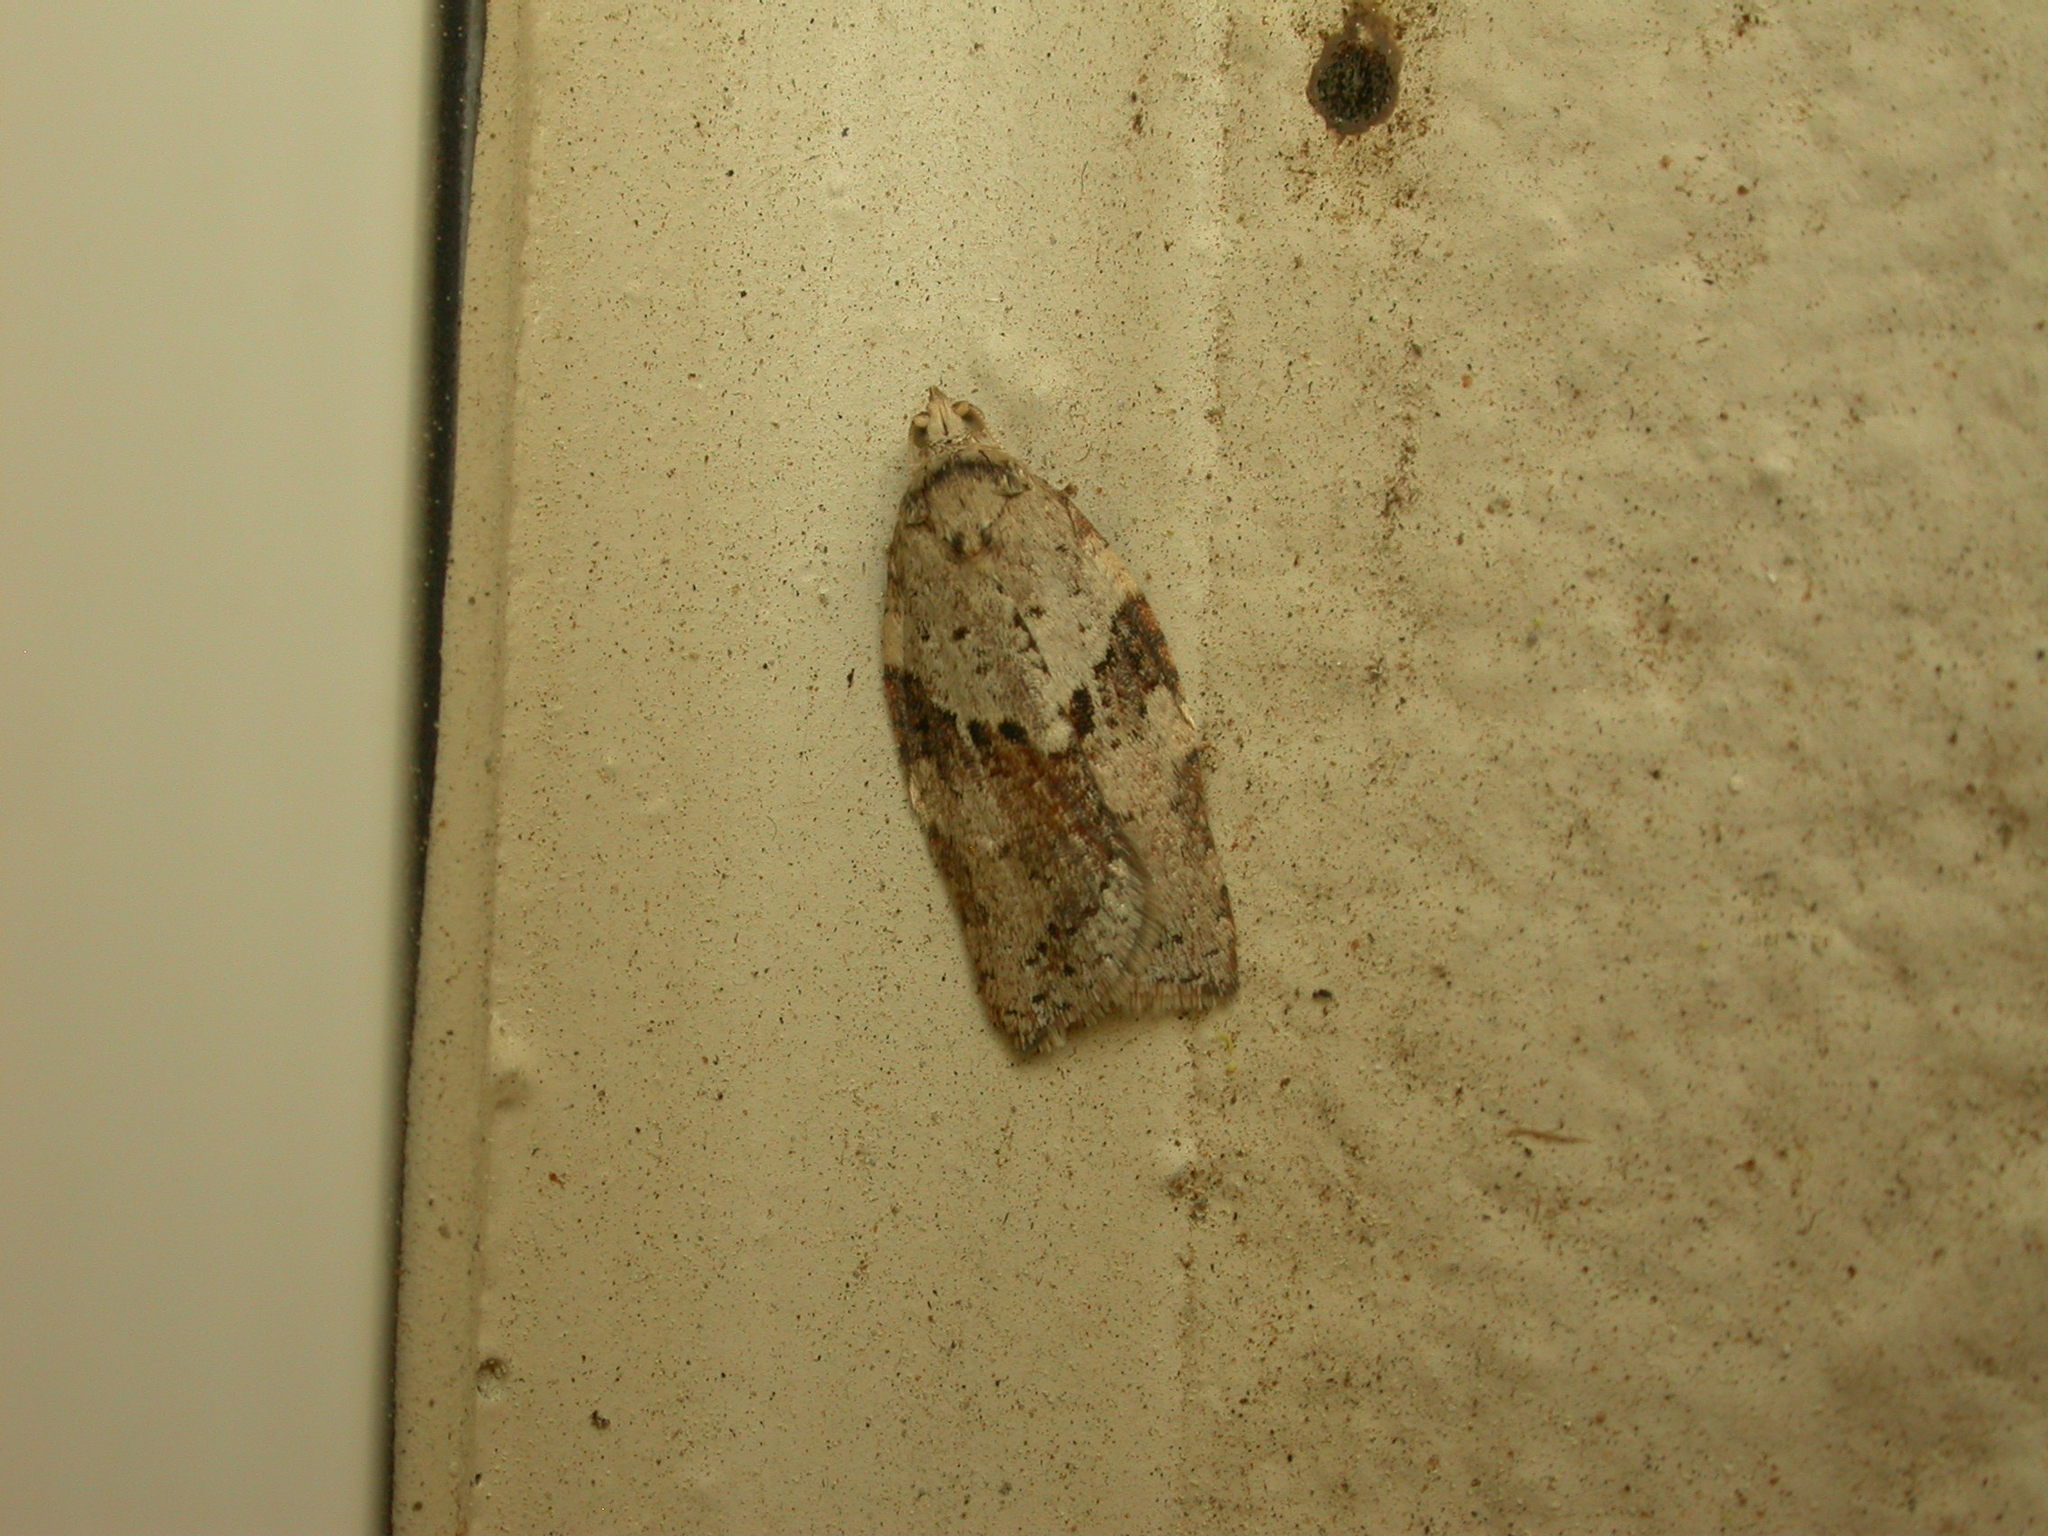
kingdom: Animalia
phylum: Arthropoda
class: Insecta
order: Lepidoptera
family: Tortricidae
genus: Epiphyas
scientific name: Epiphyas ashworthana
